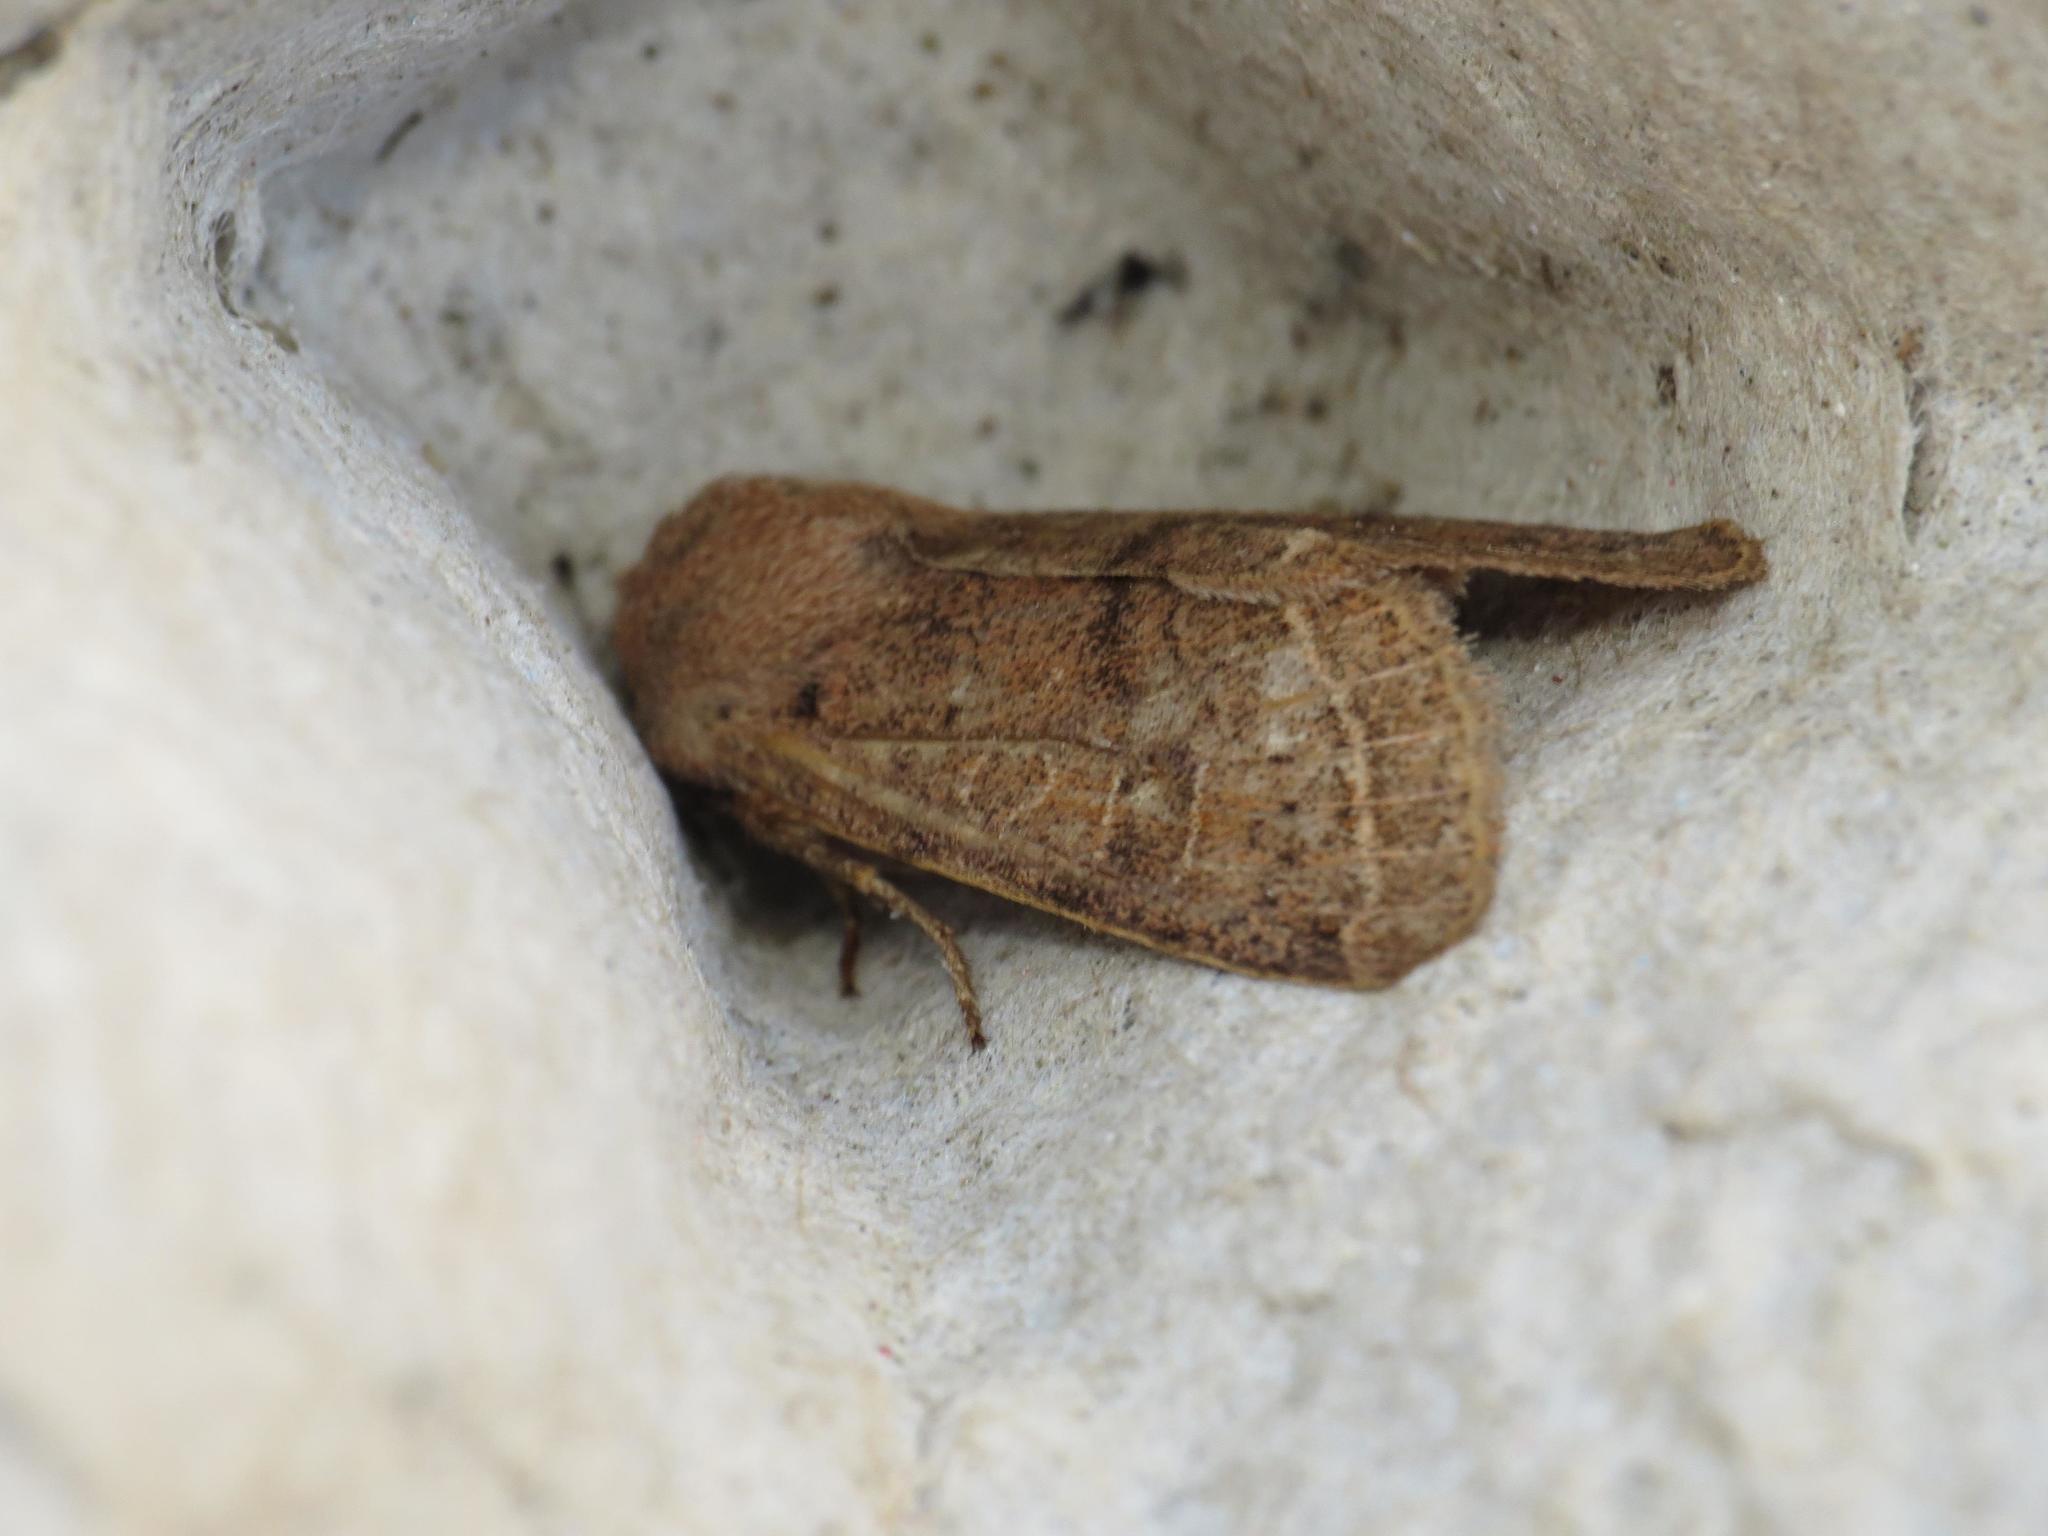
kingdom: Animalia
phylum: Arthropoda
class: Insecta
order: Lepidoptera
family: Noctuidae
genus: Orthosia
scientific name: Orthosia cerasi
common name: Common quaker
